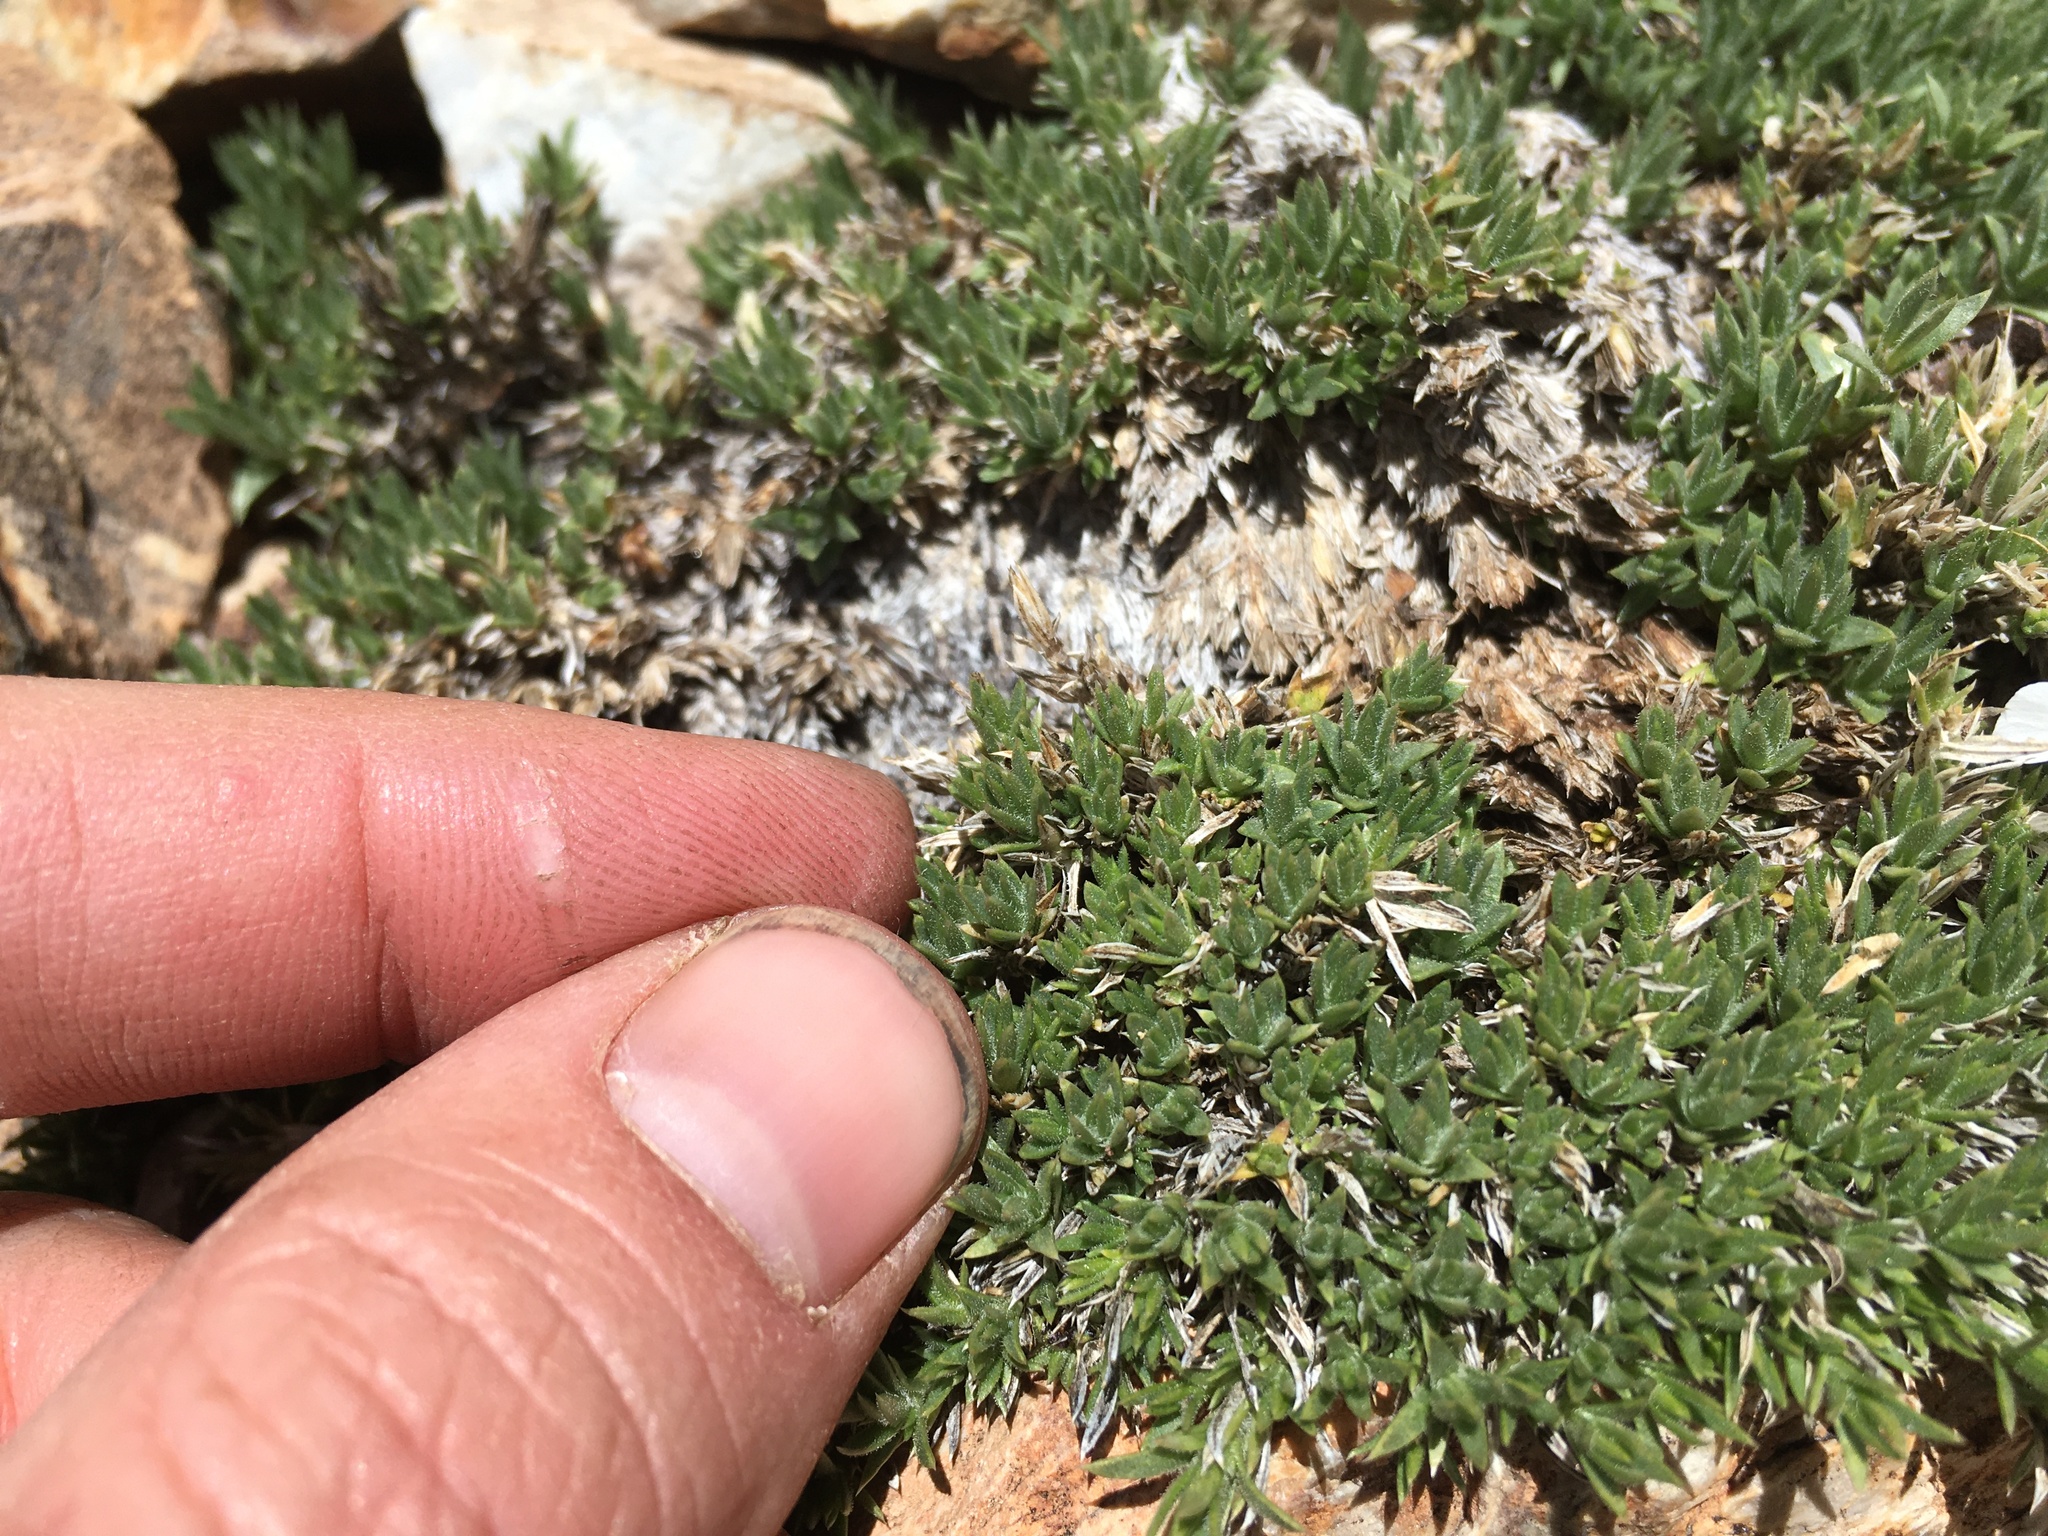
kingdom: Plantae
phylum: Tracheophyta
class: Magnoliopsida
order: Ericales
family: Polemoniaceae
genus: Phlox
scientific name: Phlox condensata
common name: Compact phlox
